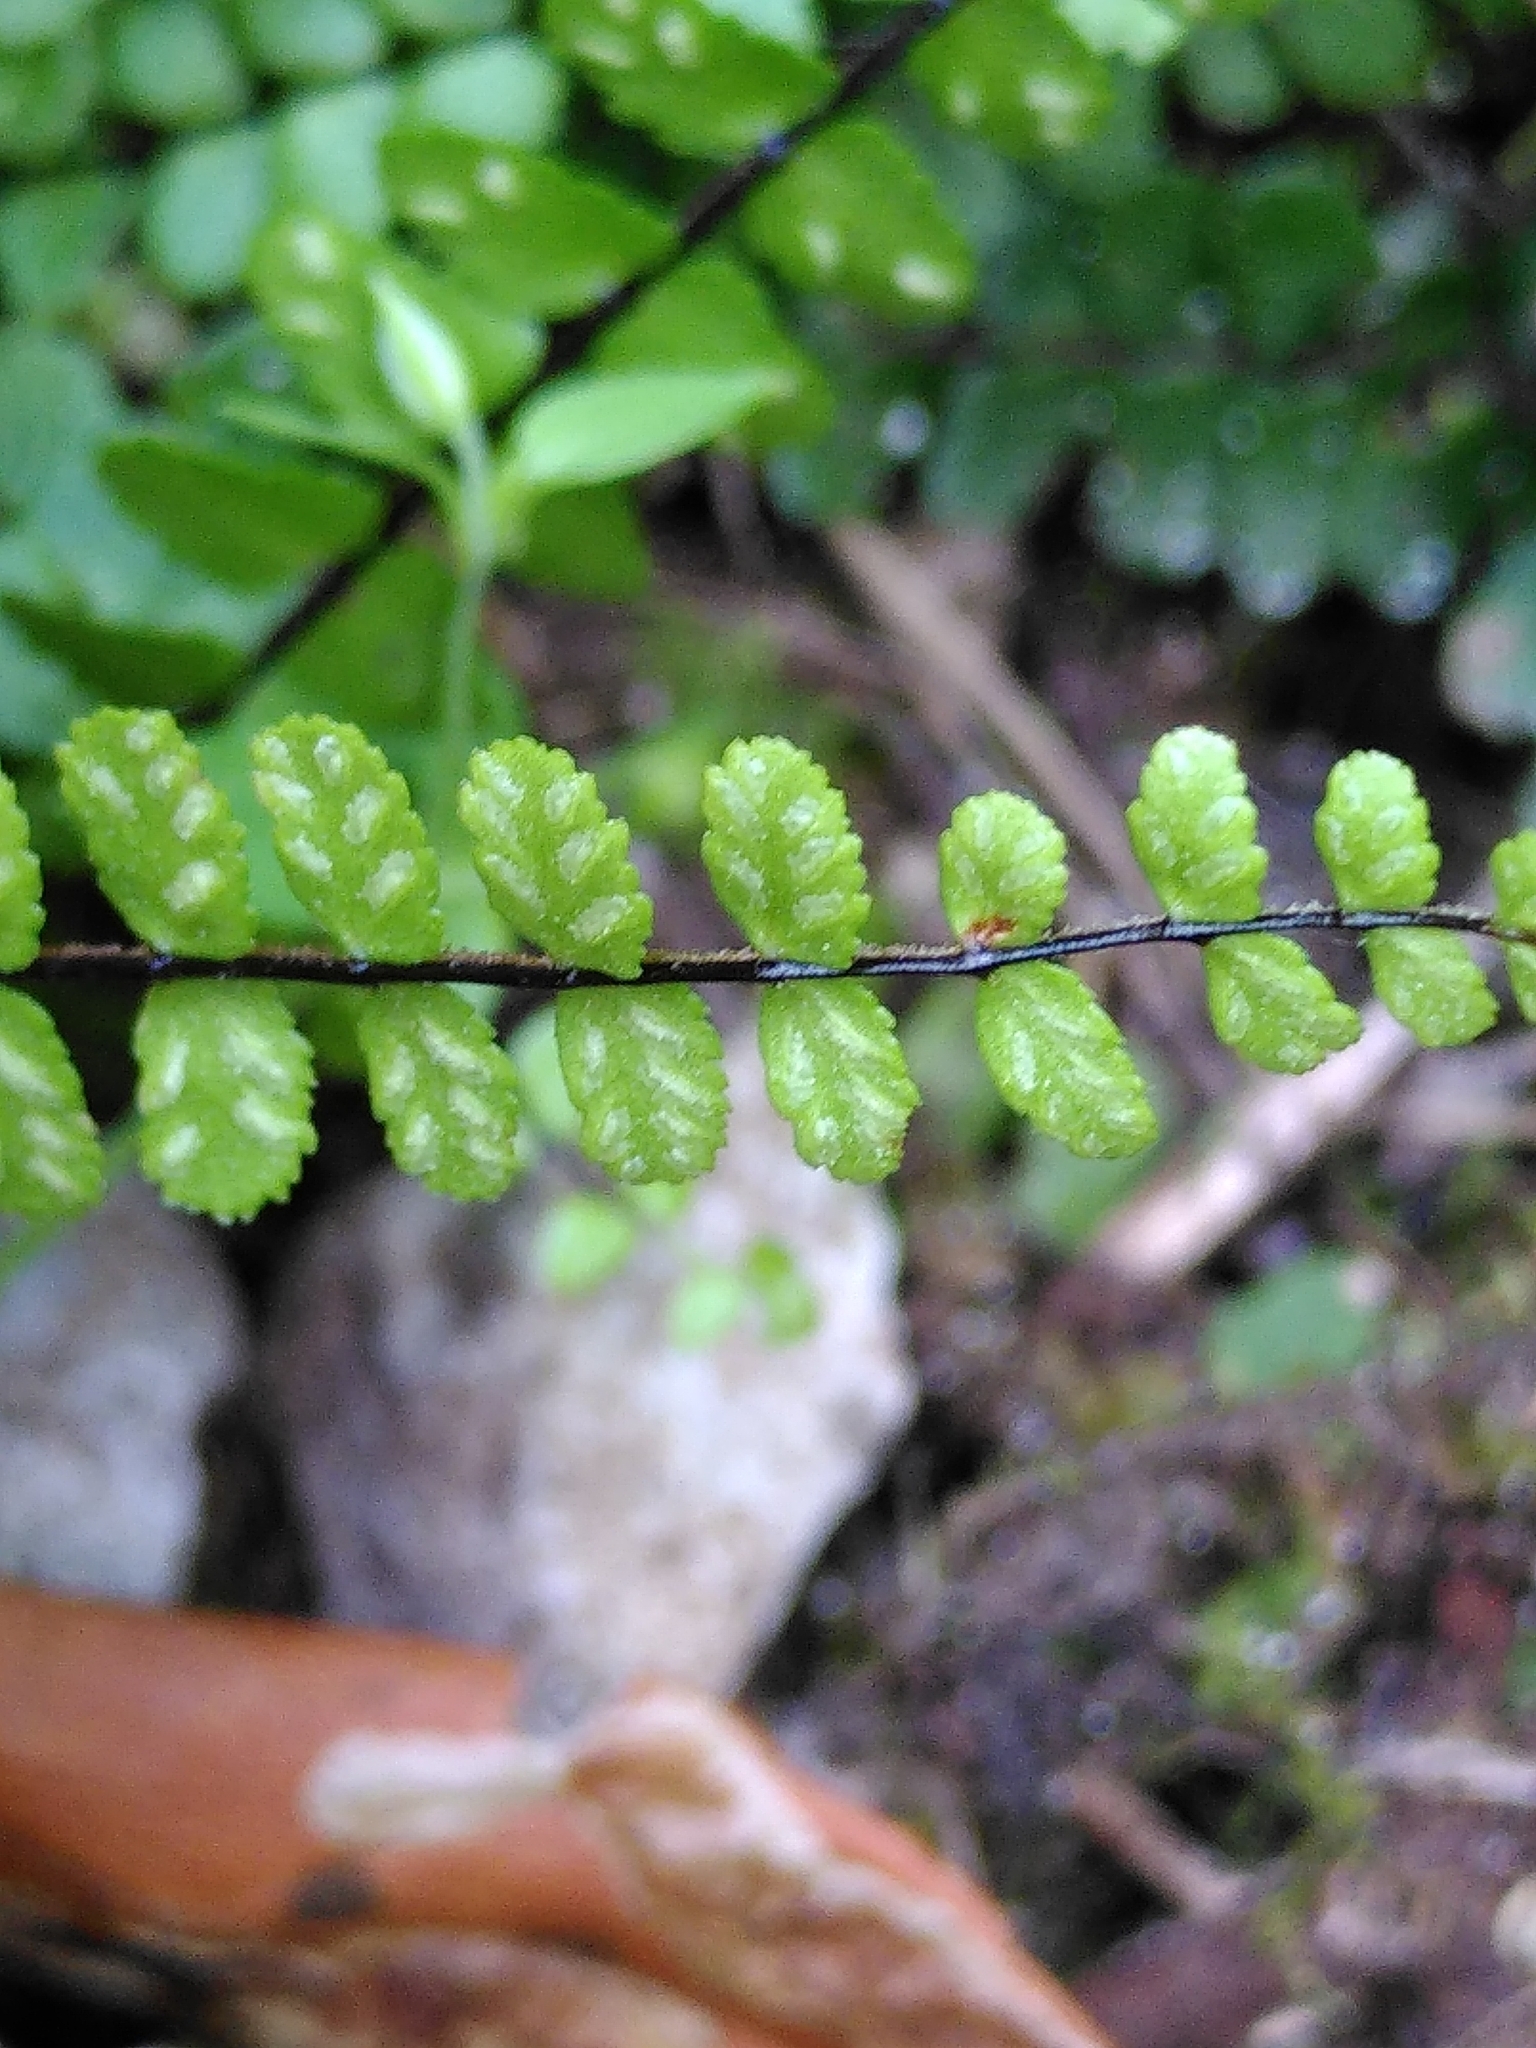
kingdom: Plantae
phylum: Tracheophyta
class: Polypodiopsida
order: Polypodiales
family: Aspleniaceae
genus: Asplenium
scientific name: Asplenium trichomanes
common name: Maidenhair spleenwort
